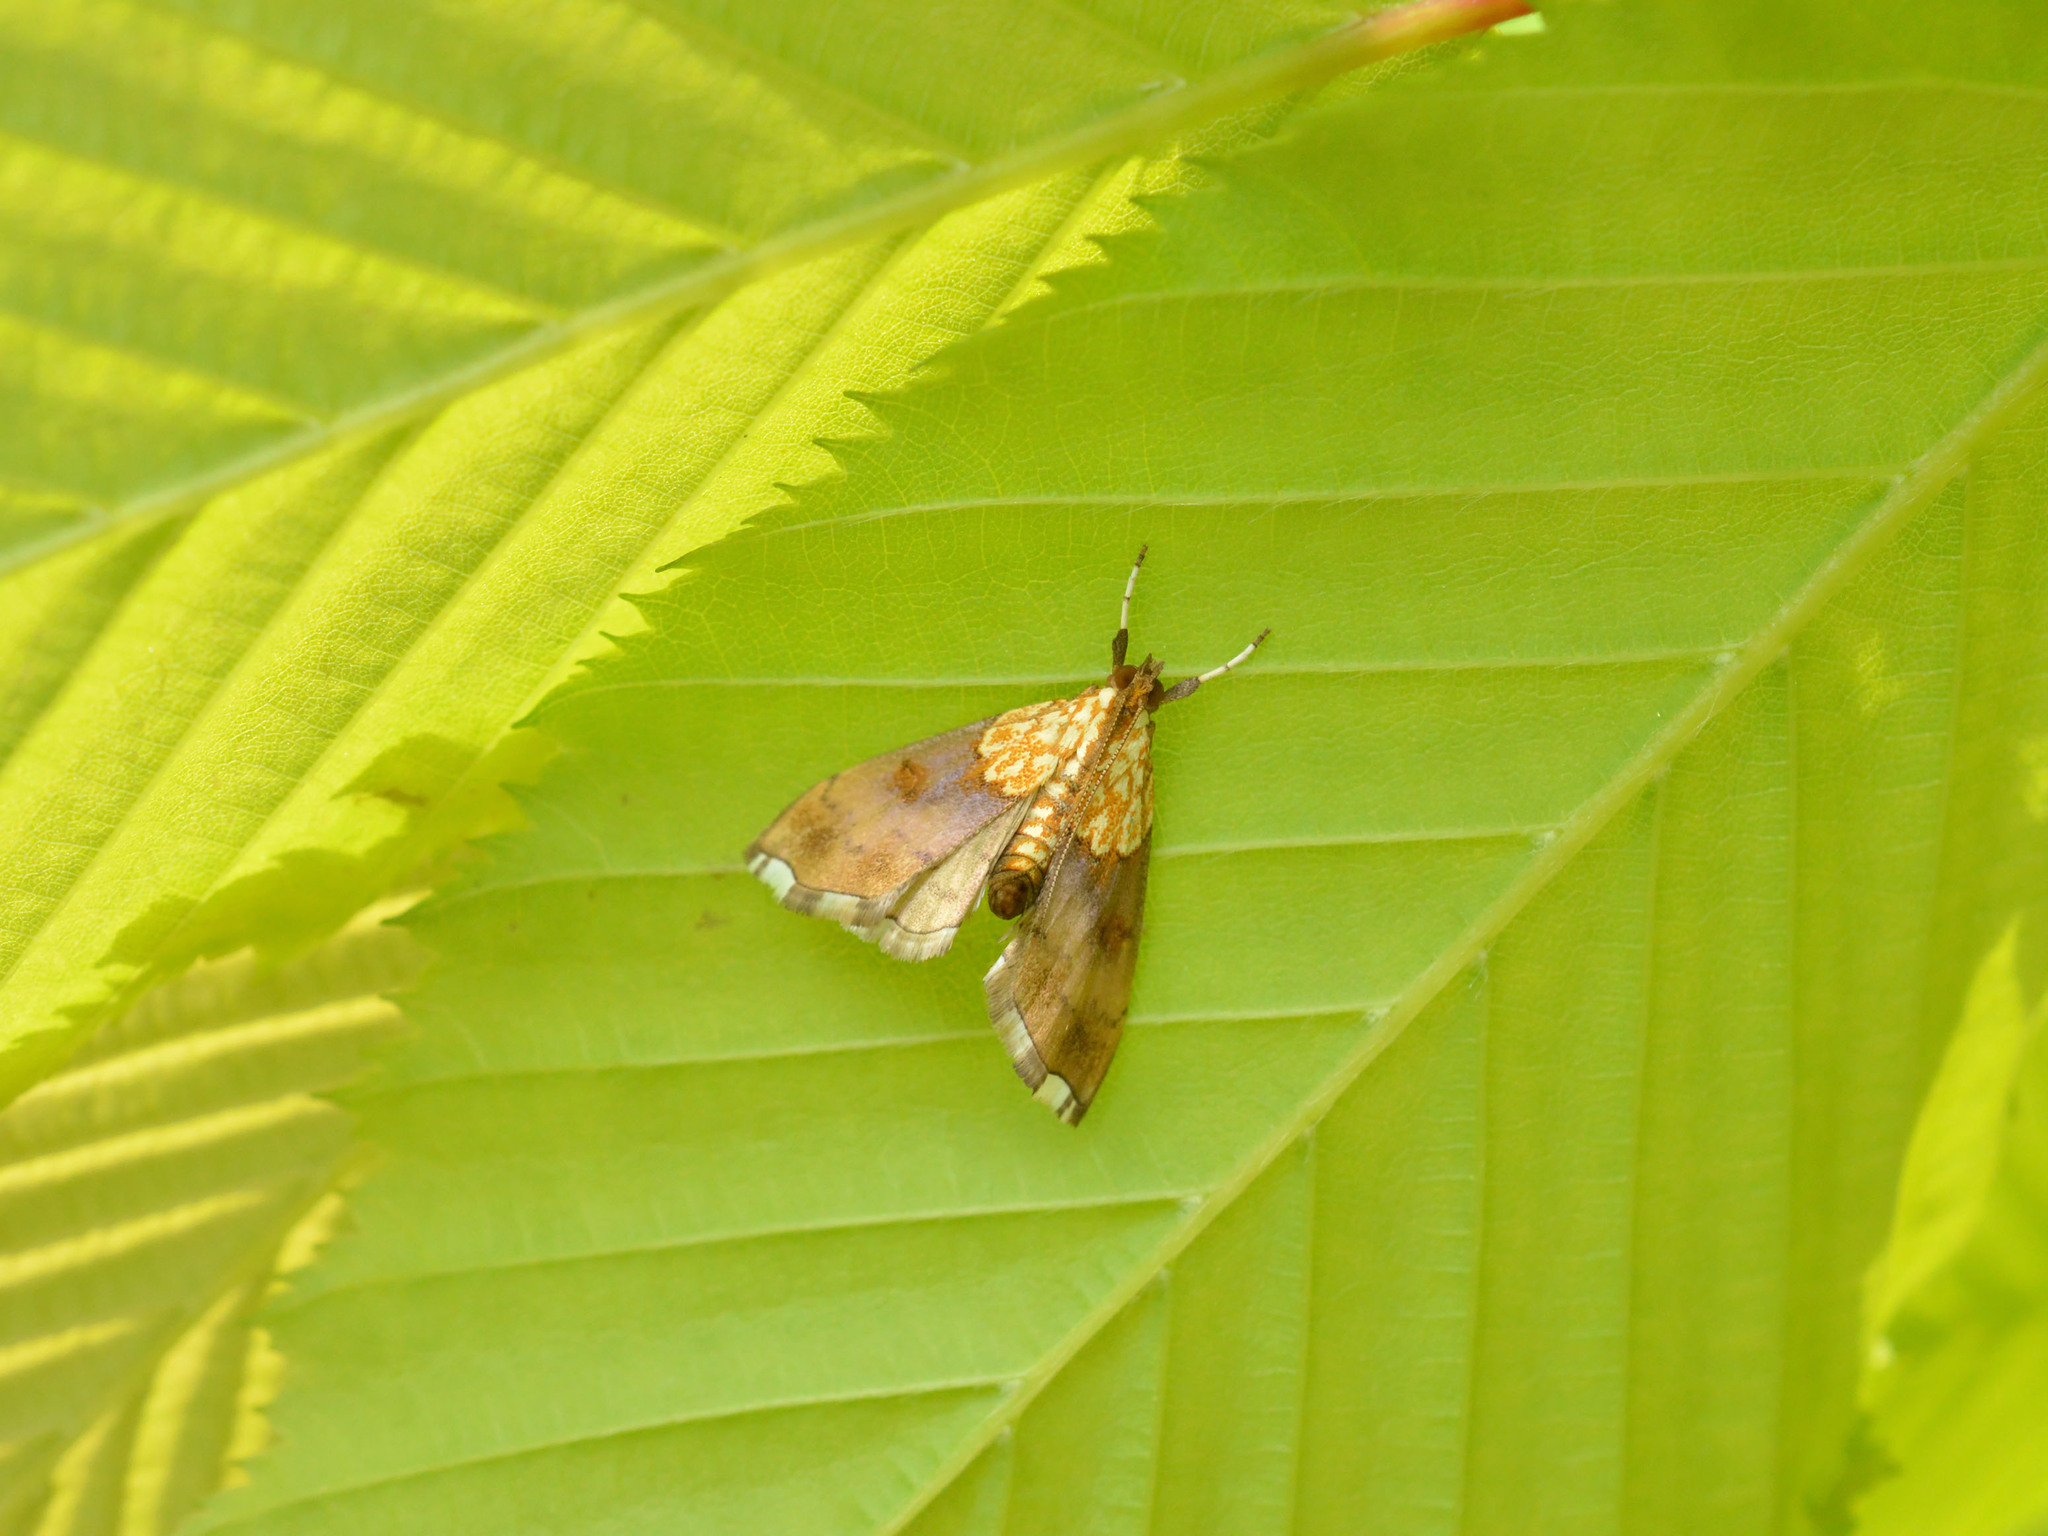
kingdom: Animalia
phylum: Arthropoda
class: Insecta
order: Lepidoptera
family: Crambidae
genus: Agrotera
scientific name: Agrotera nemoralis
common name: Beautiful pearl
